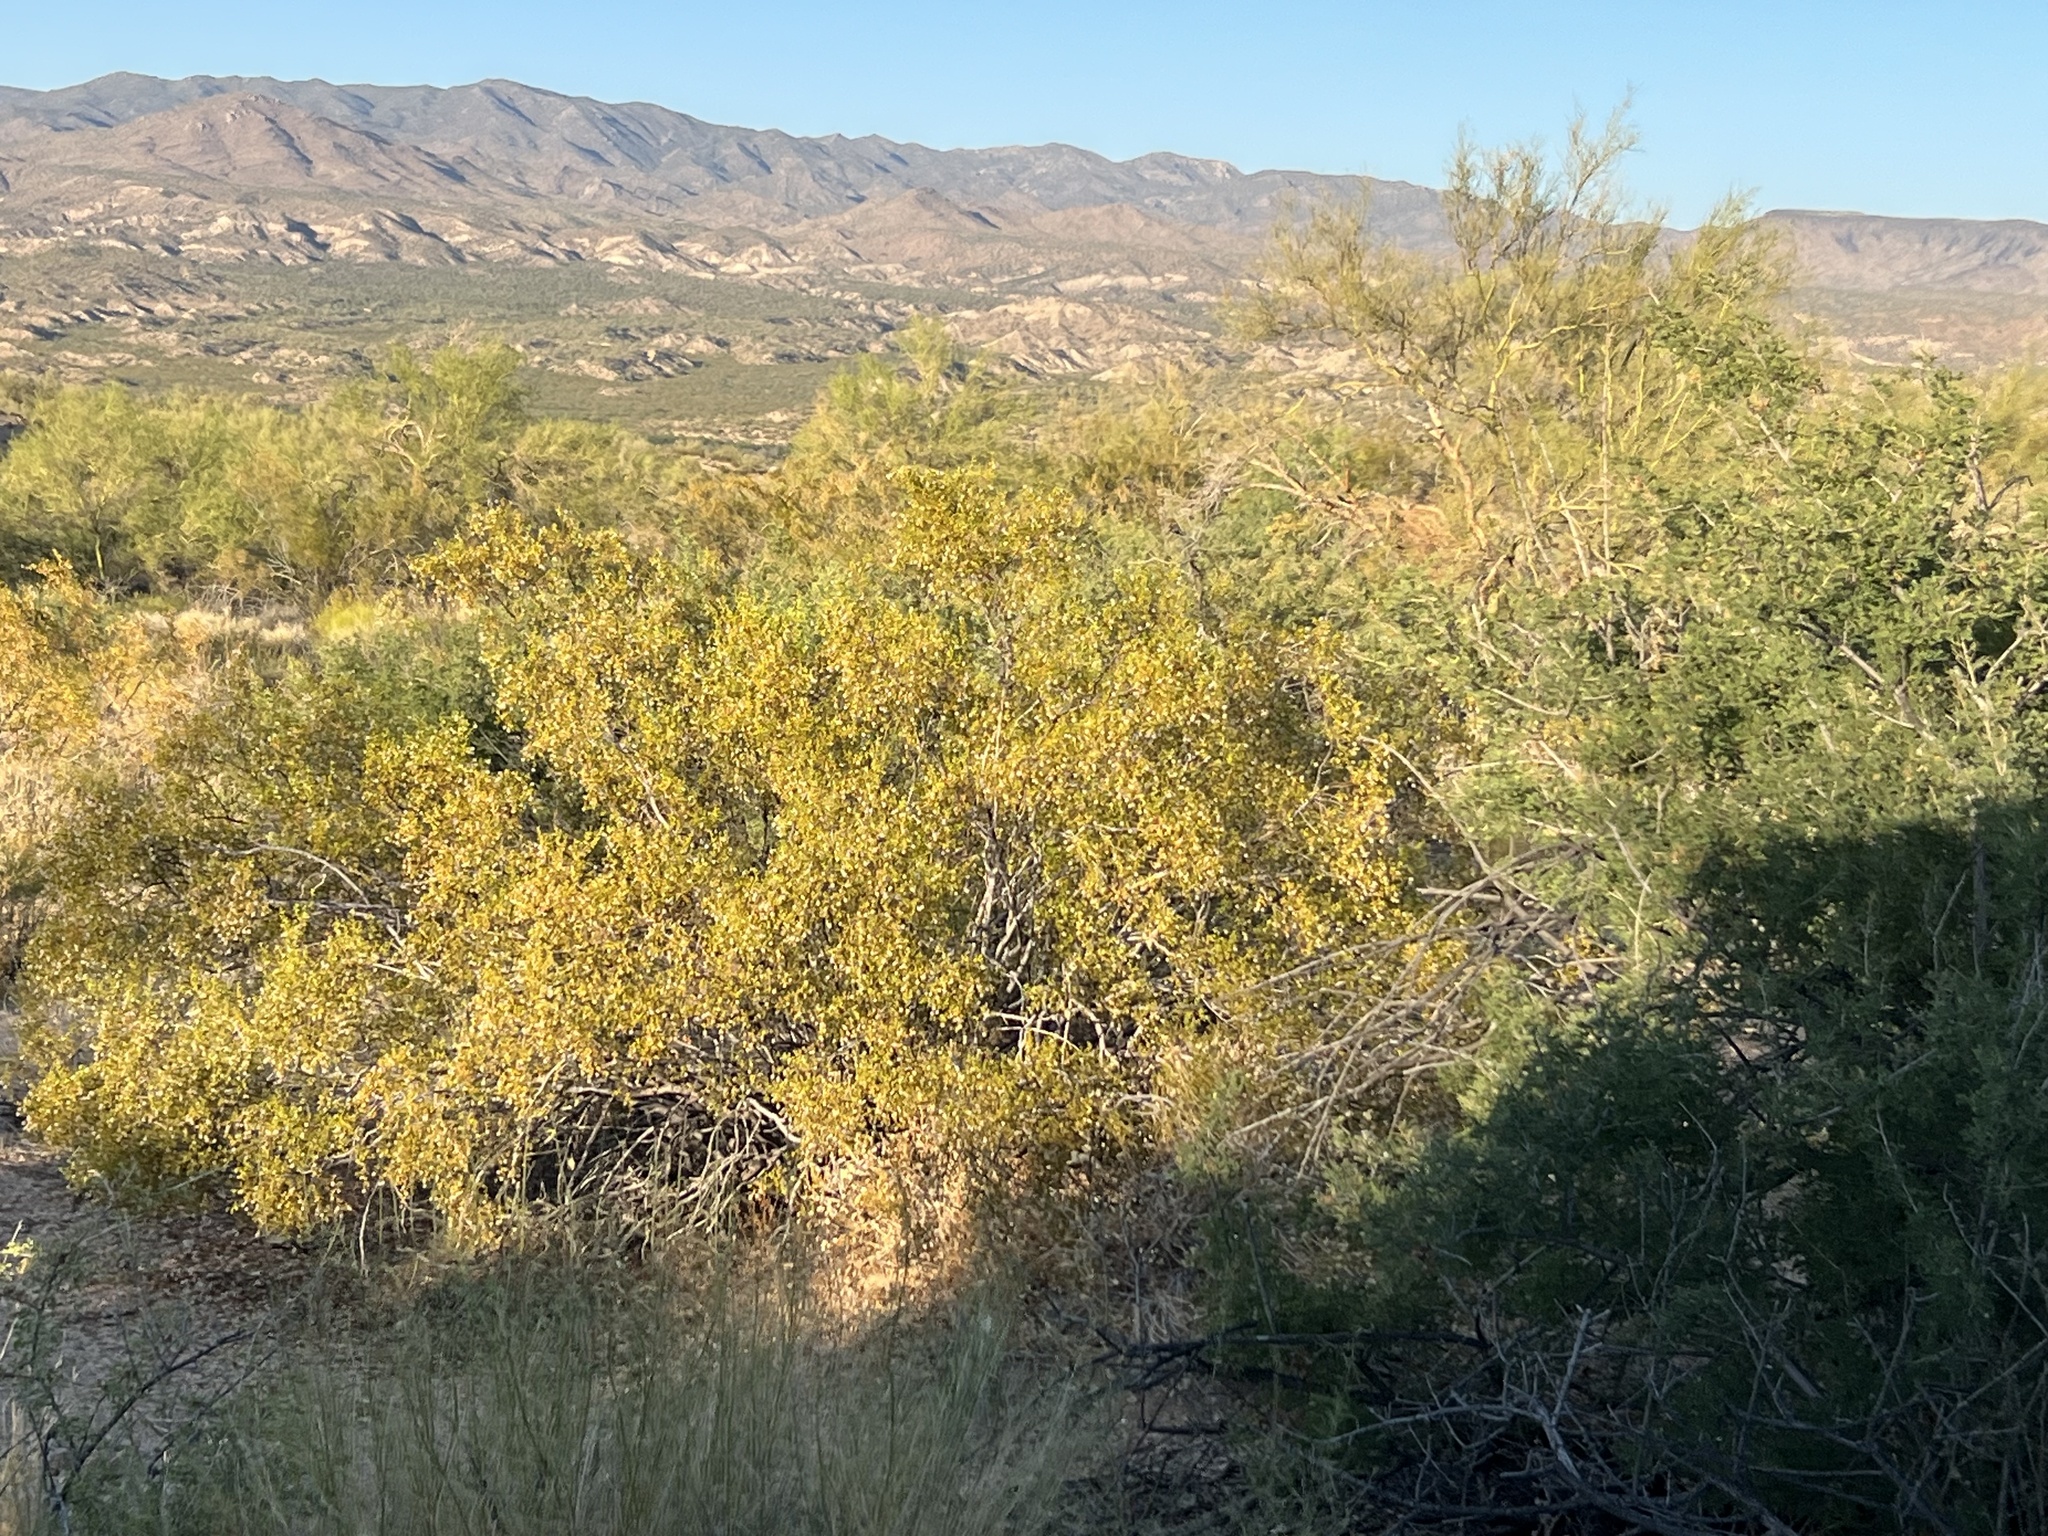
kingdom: Plantae
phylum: Tracheophyta
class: Magnoliopsida
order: Zygophyllales
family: Zygophyllaceae
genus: Larrea
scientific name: Larrea tridentata
